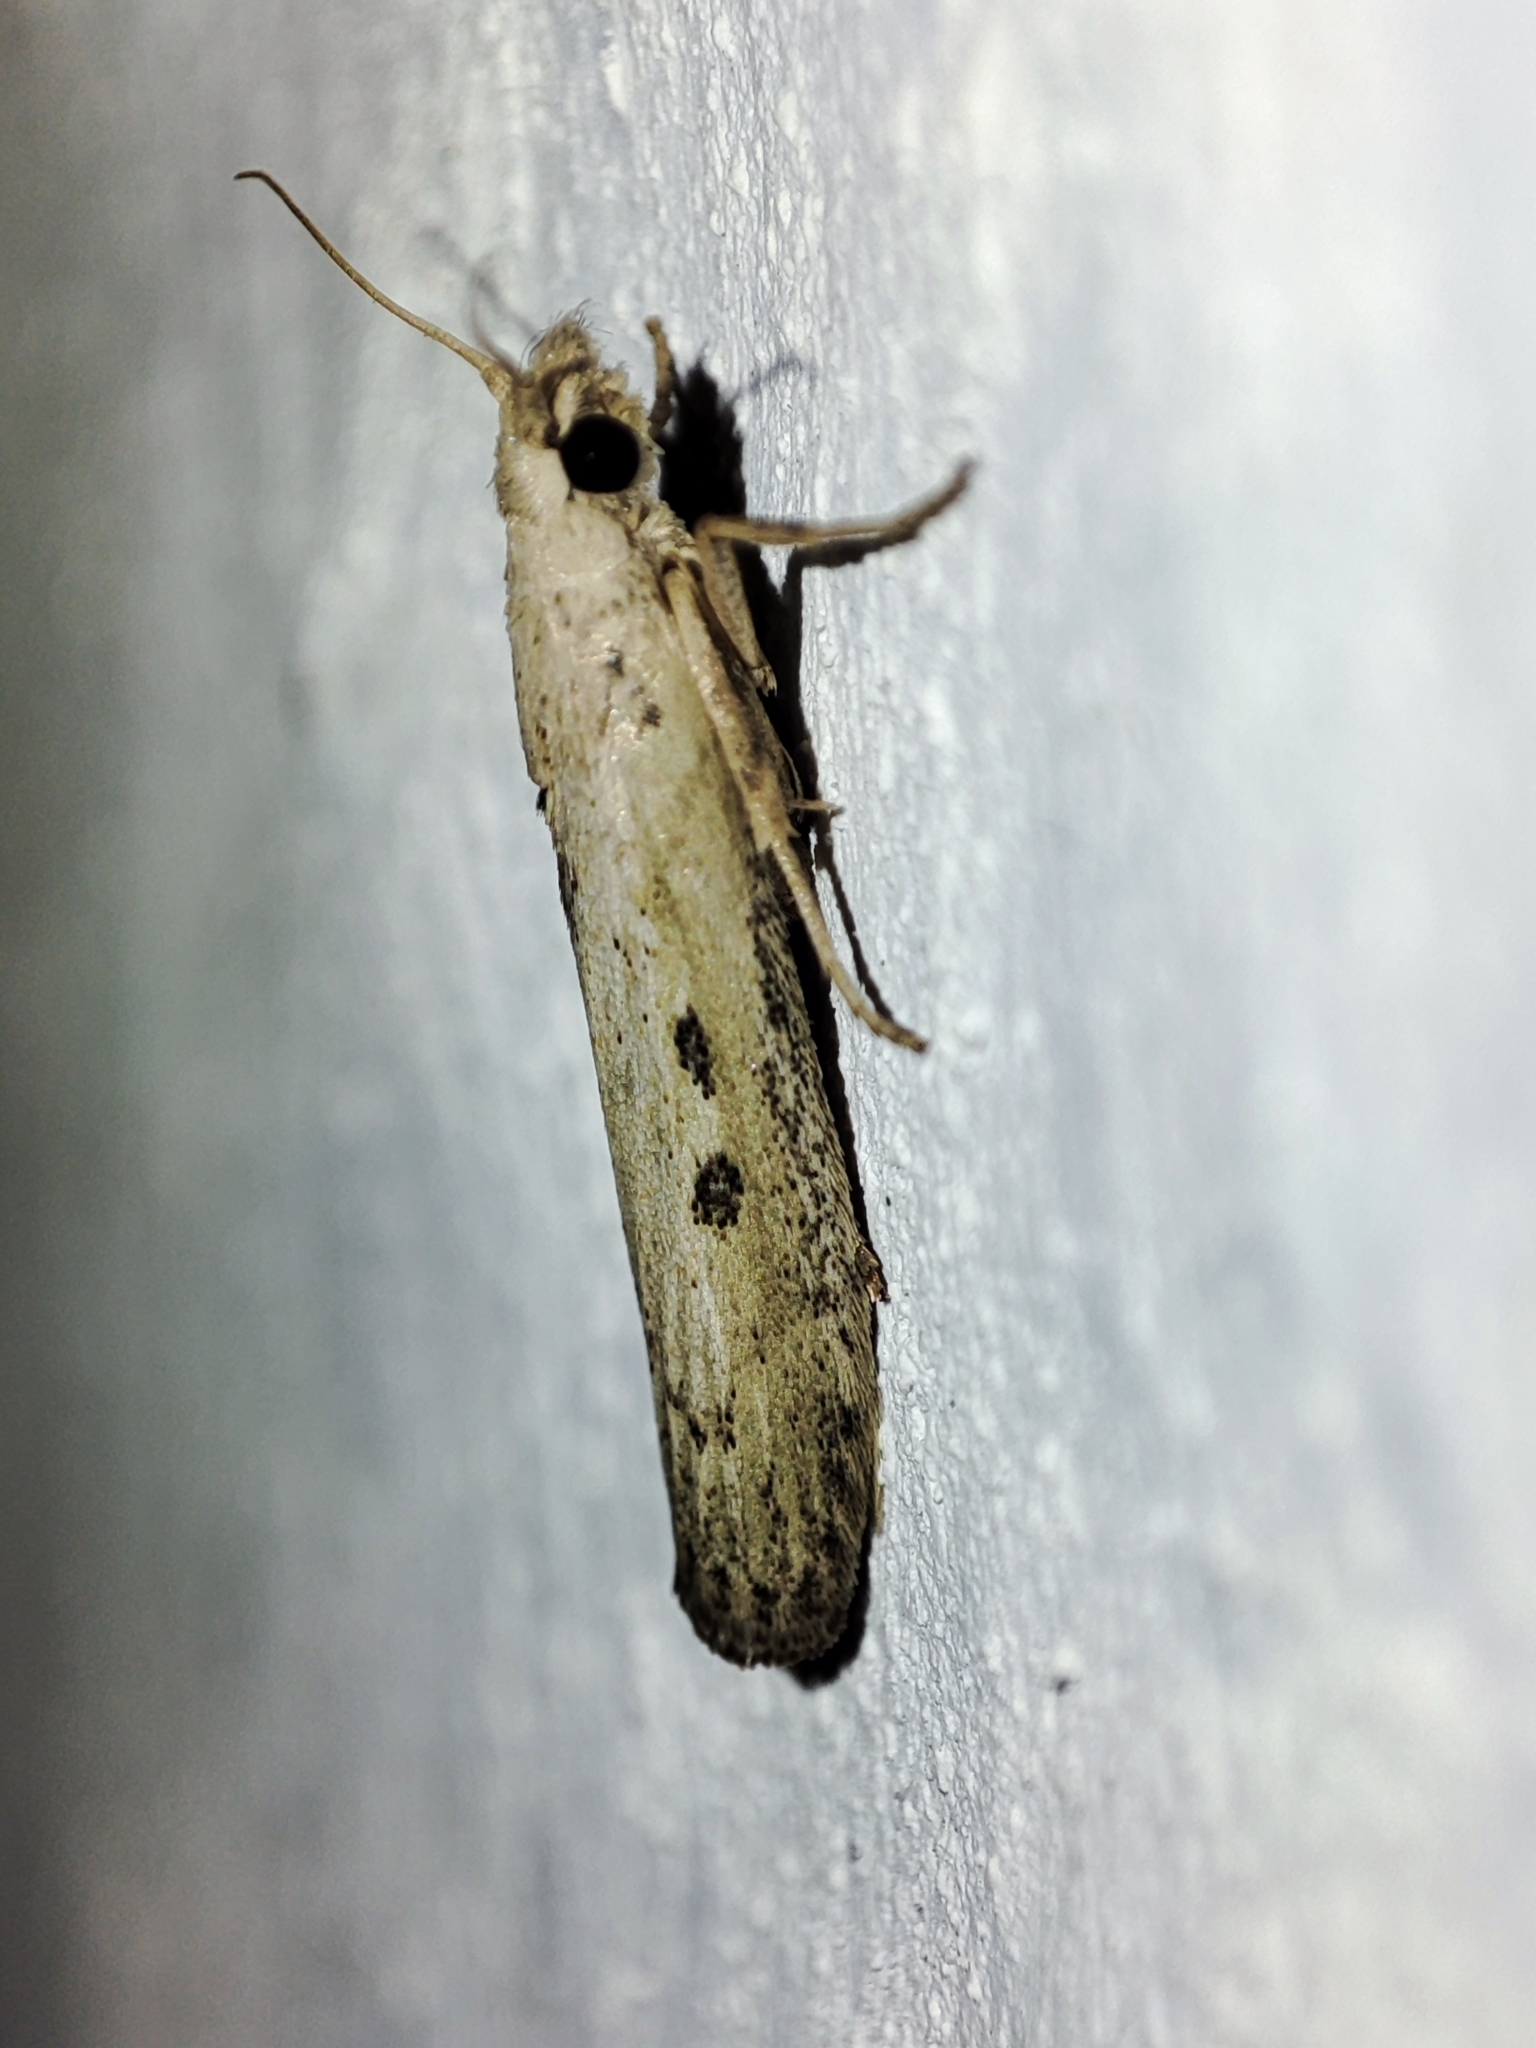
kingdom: Animalia
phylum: Arthropoda
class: Insecta
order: Lepidoptera
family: Pyralidae
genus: Aphomia
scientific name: Aphomia zelleri
